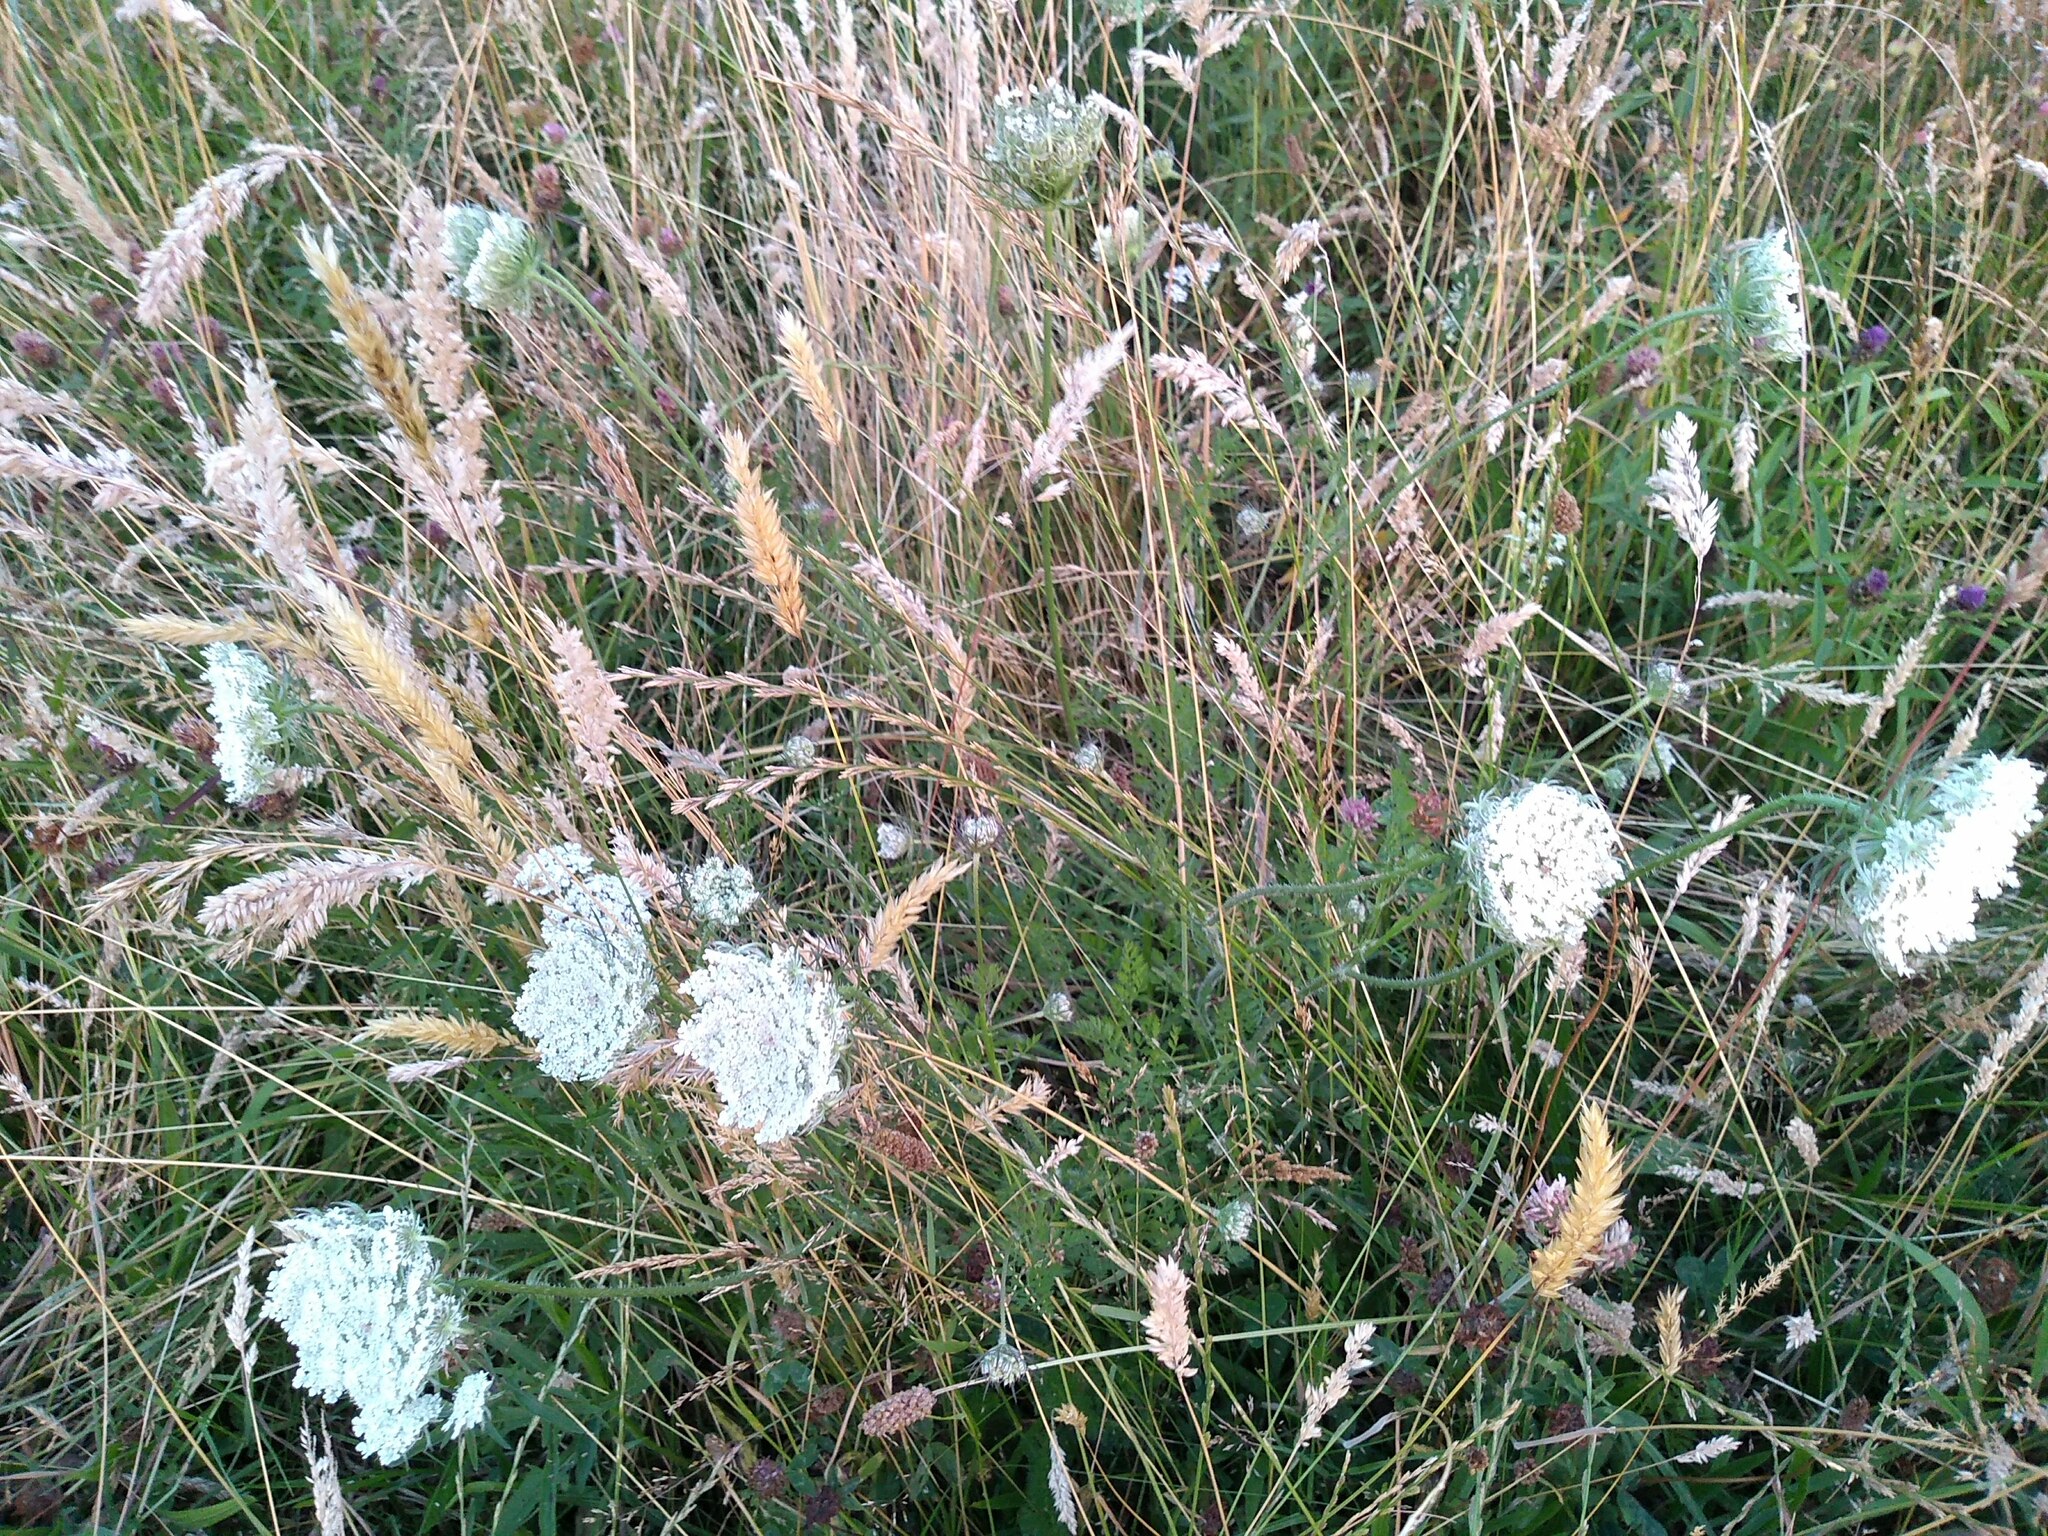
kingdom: Plantae
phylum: Tracheophyta
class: Magnoliopsida
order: Apiales
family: Apiaceae
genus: Daucus
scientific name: Daucus carota
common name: Wild carrot
